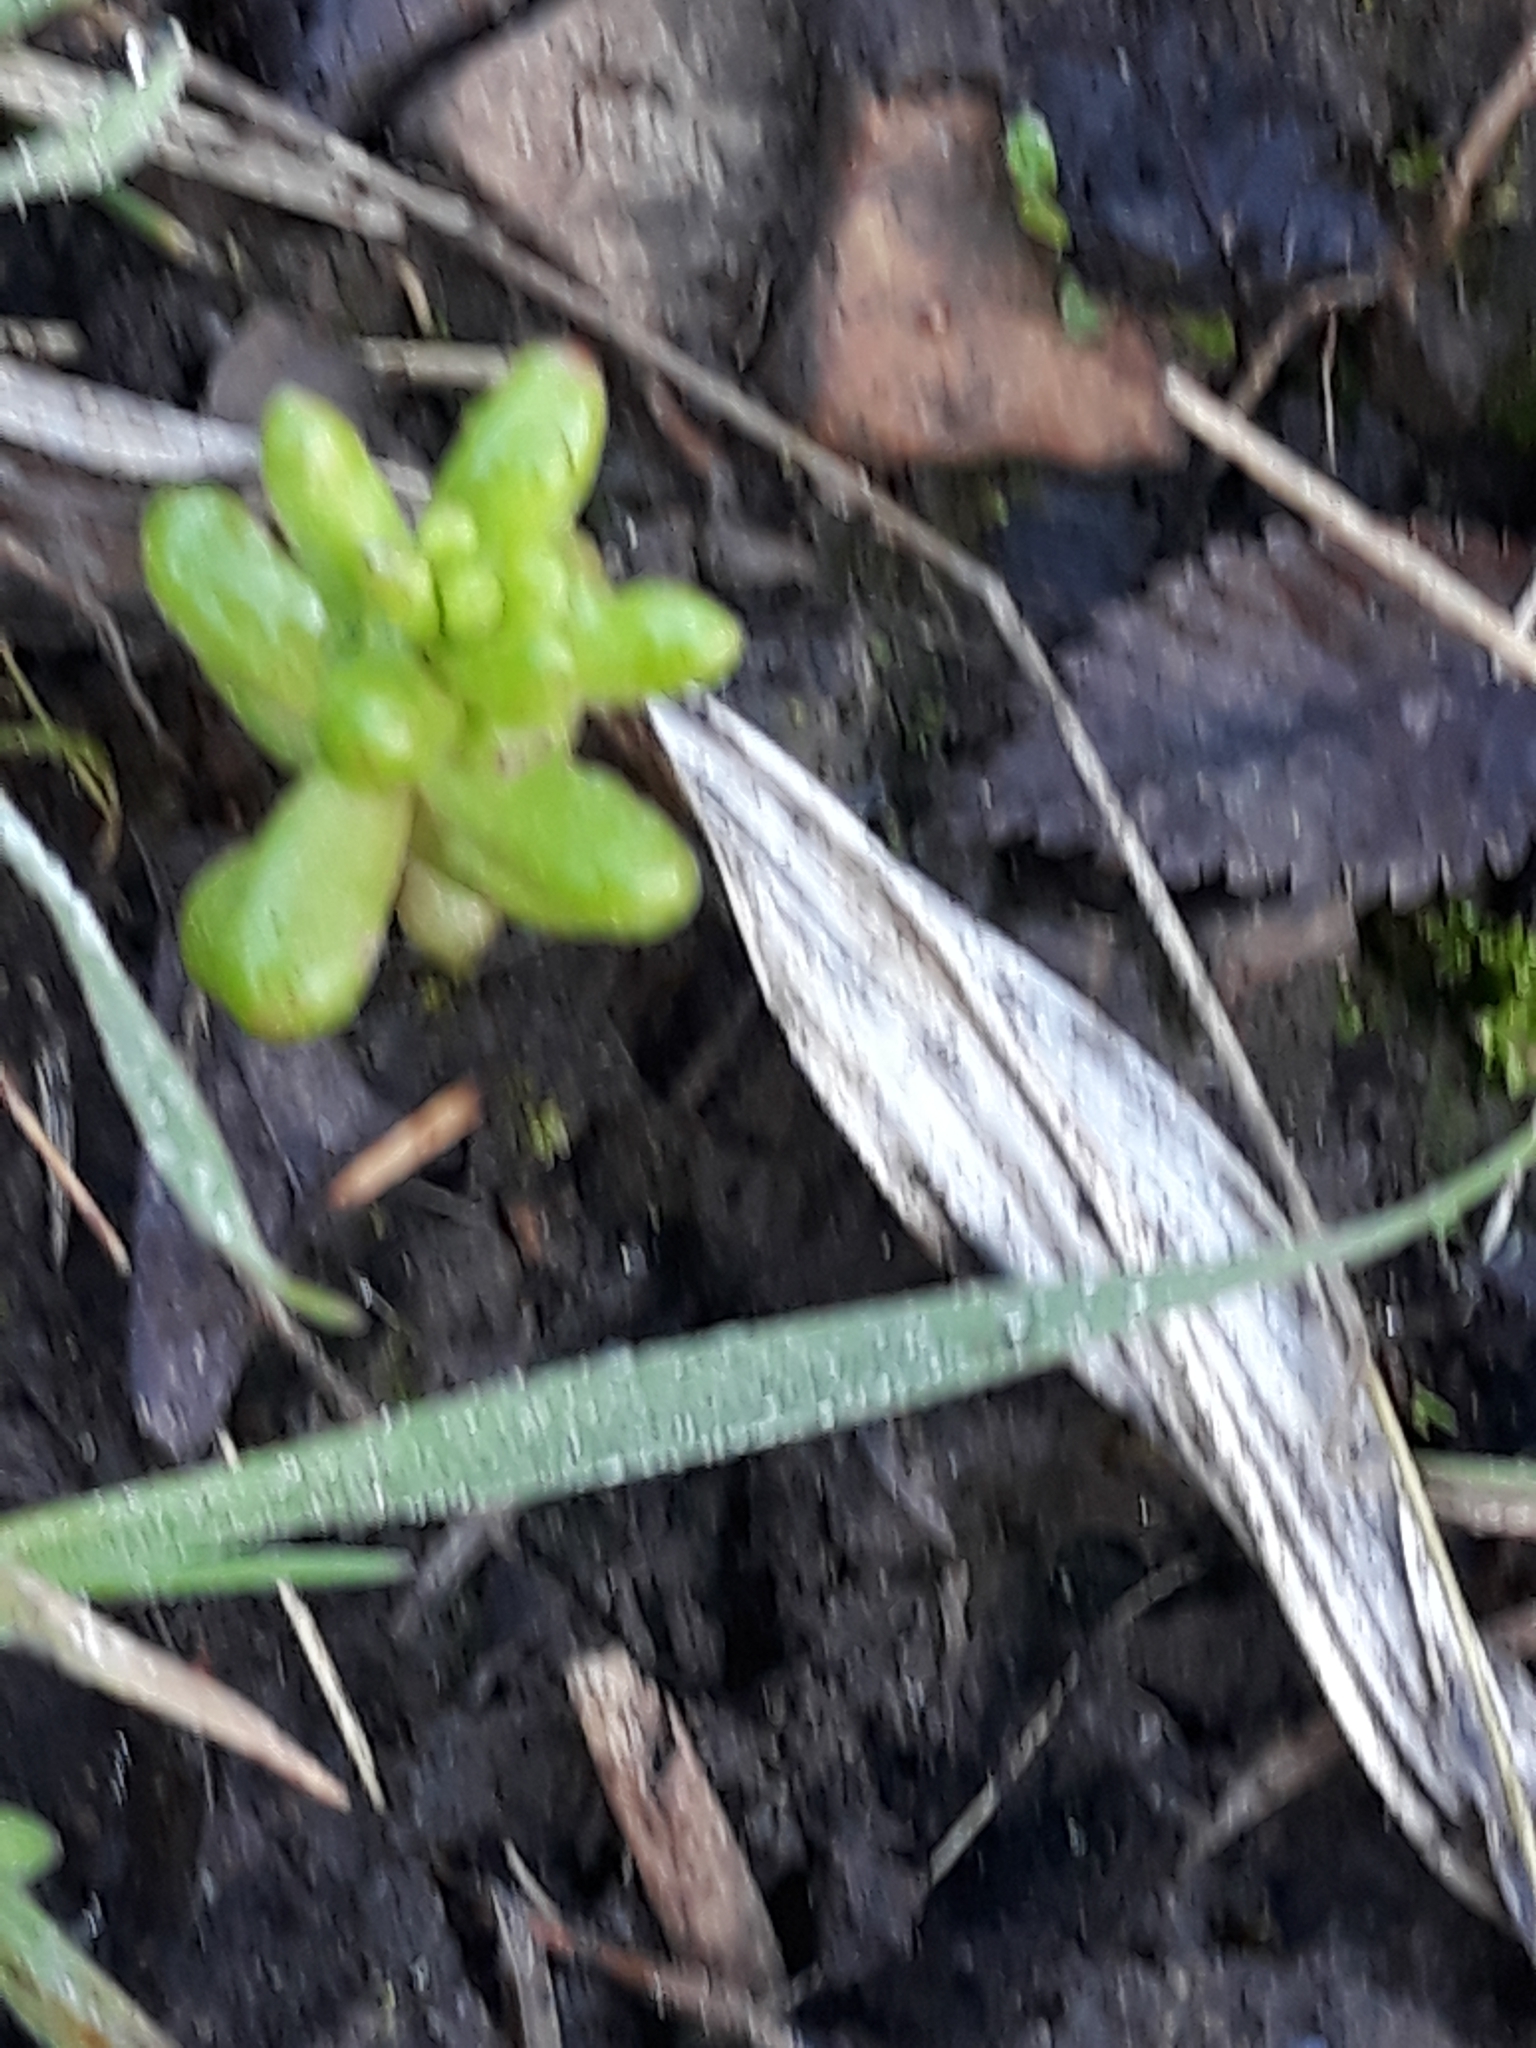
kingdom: Plantae
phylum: Tracheophyta
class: Magnoliopsida
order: Saxifragales
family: Crassulaceae
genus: Sedum
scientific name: Sedum album
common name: White stonecrop
